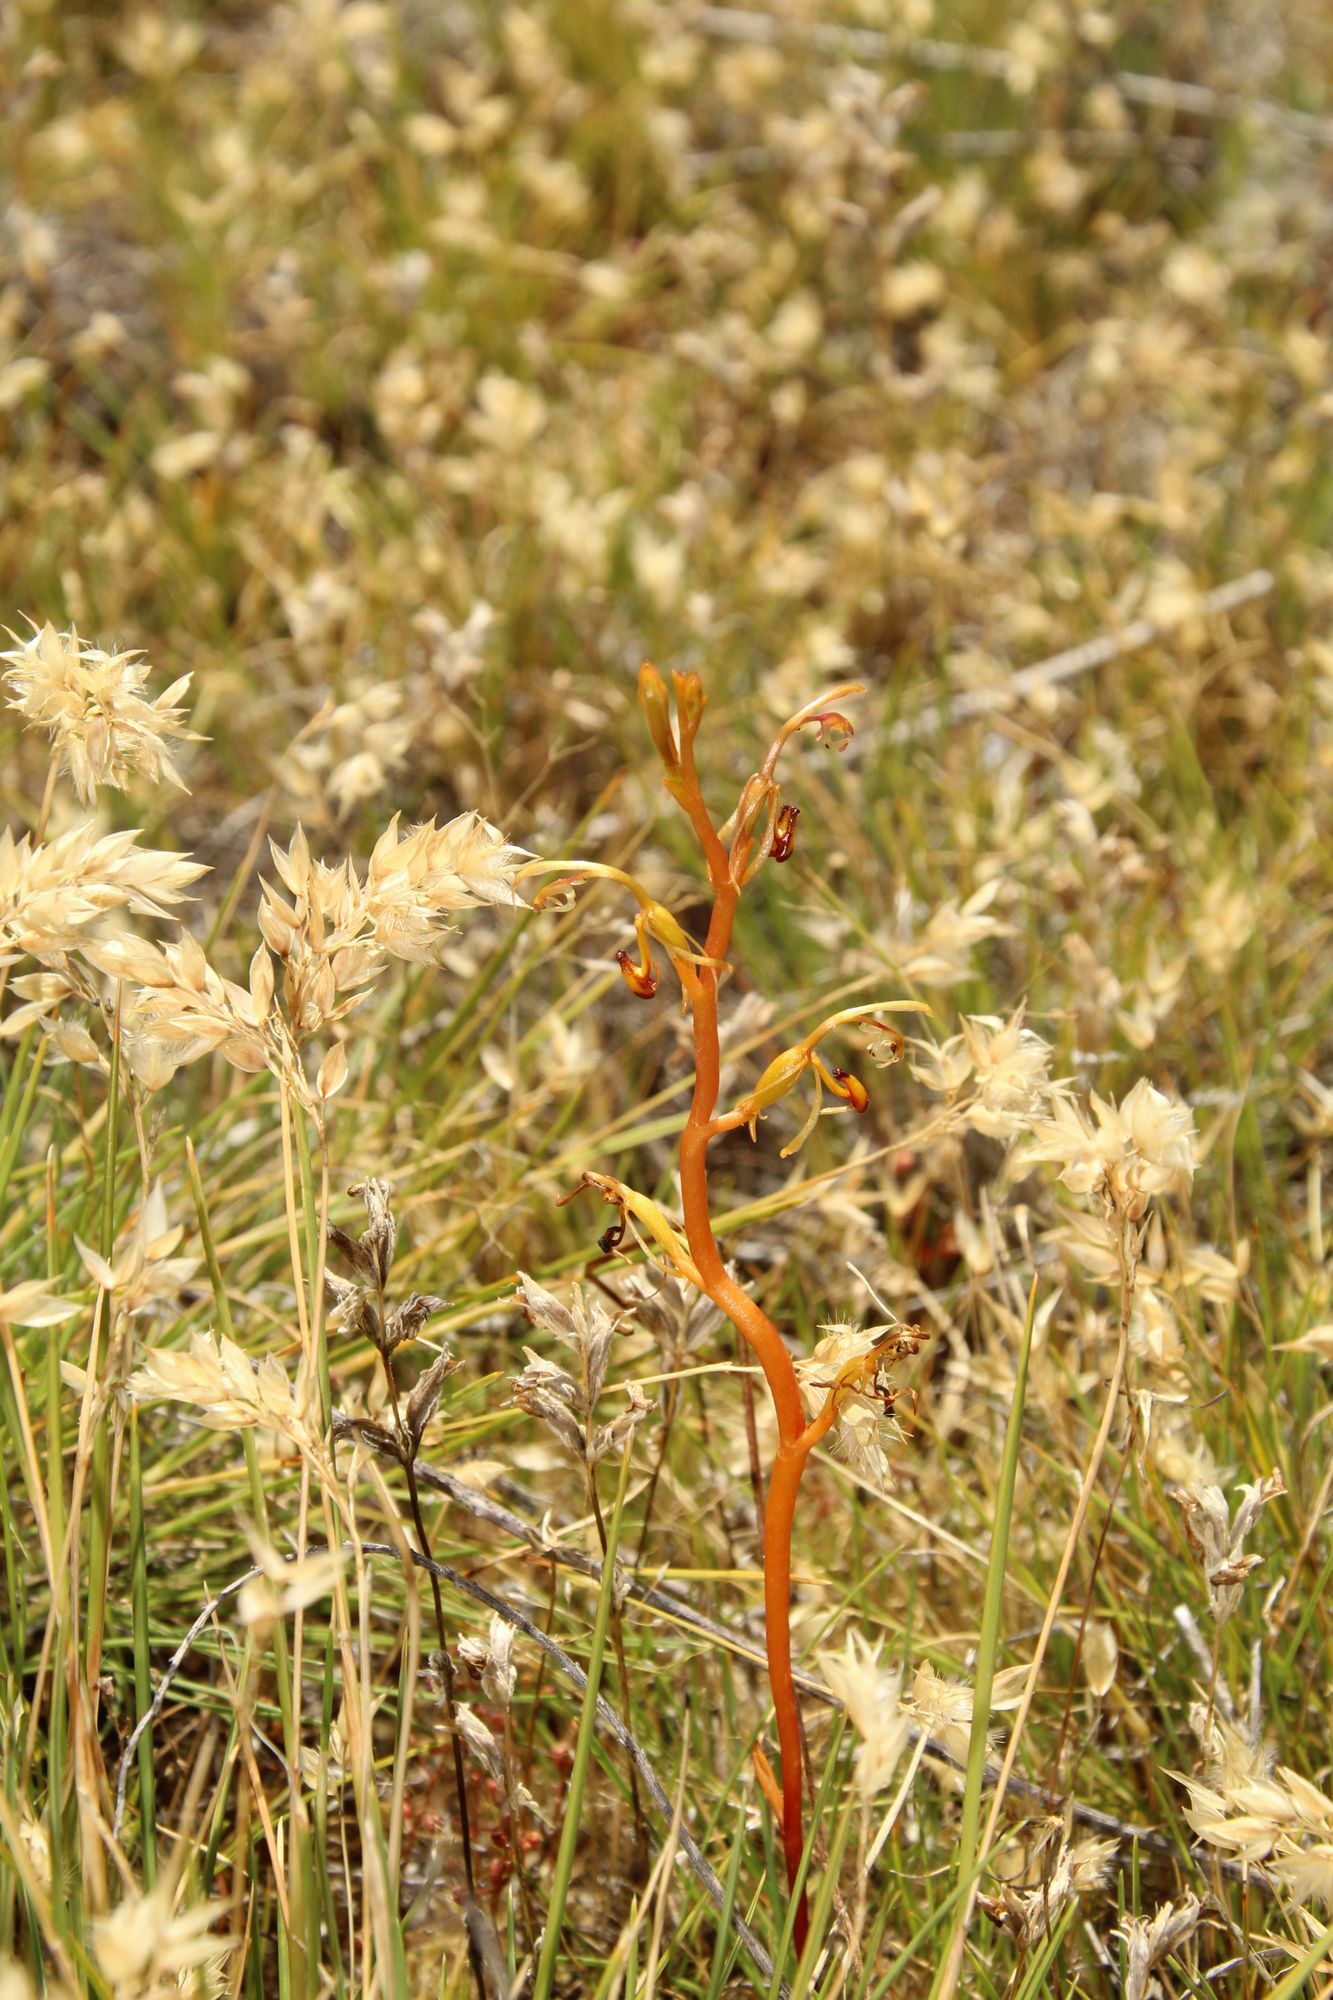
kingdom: Plantae
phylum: Tracheophyta
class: Liliopsida
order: Asparagales
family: Orchidaceae
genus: Spiculaea
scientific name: Spiculaea ciliata
